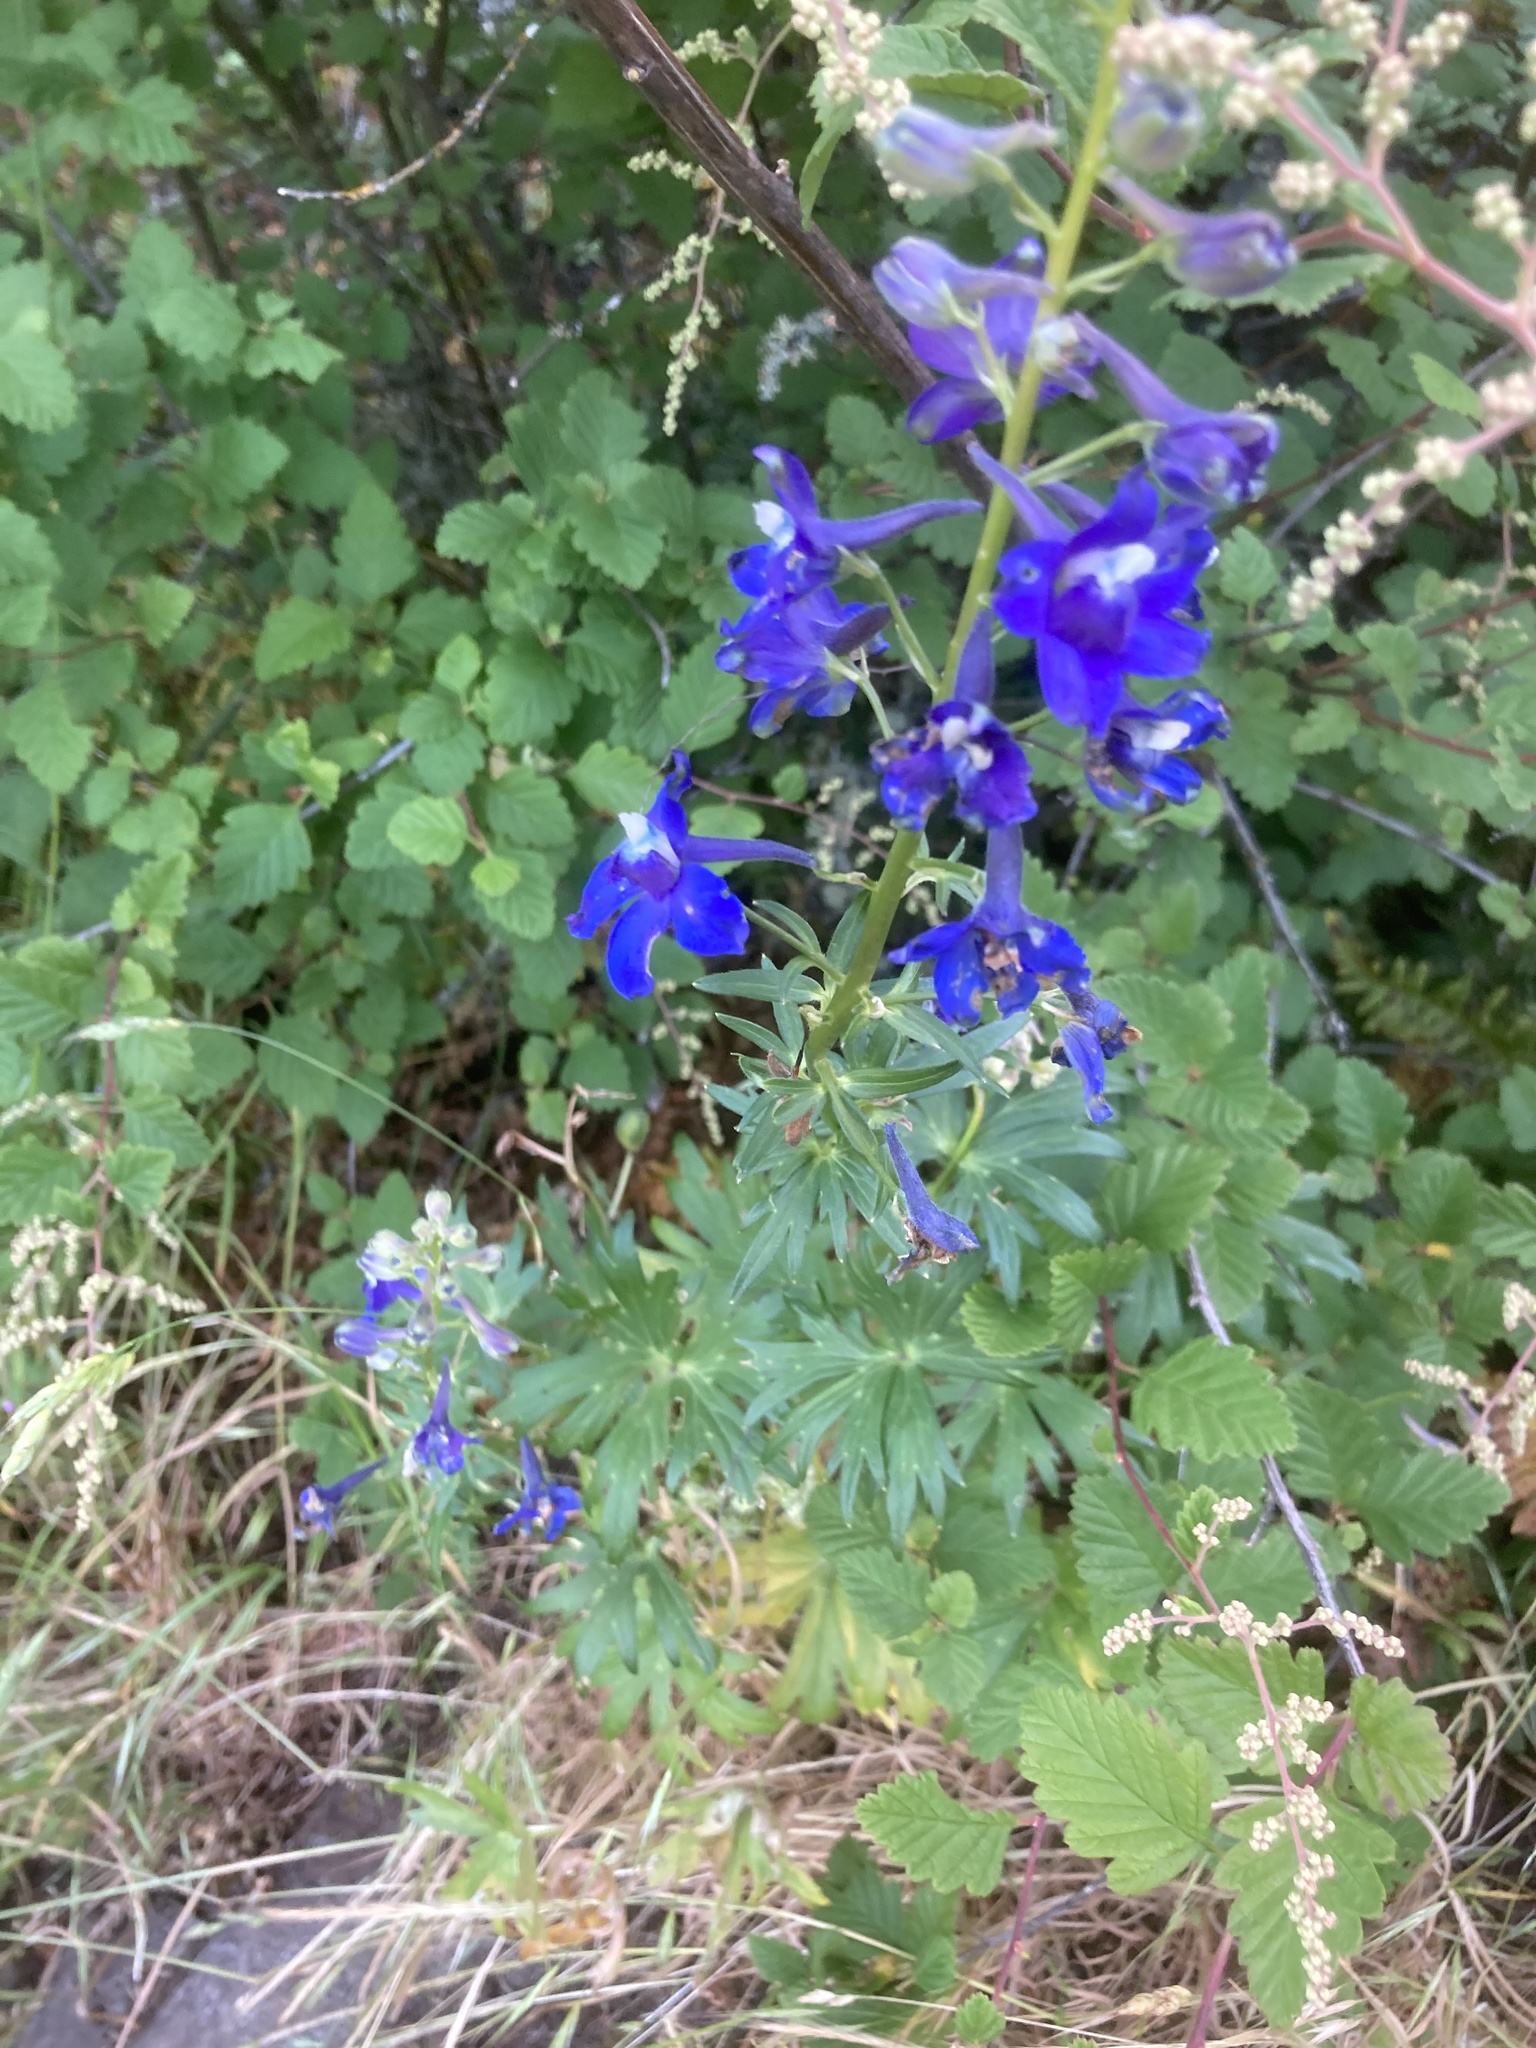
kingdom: Plantae
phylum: Tracheophyta
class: Magnoliopsida
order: Ranunculales
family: Ranunculaceae
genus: Delphinium
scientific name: Delphinium menziesii
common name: Menzies's larkspur
